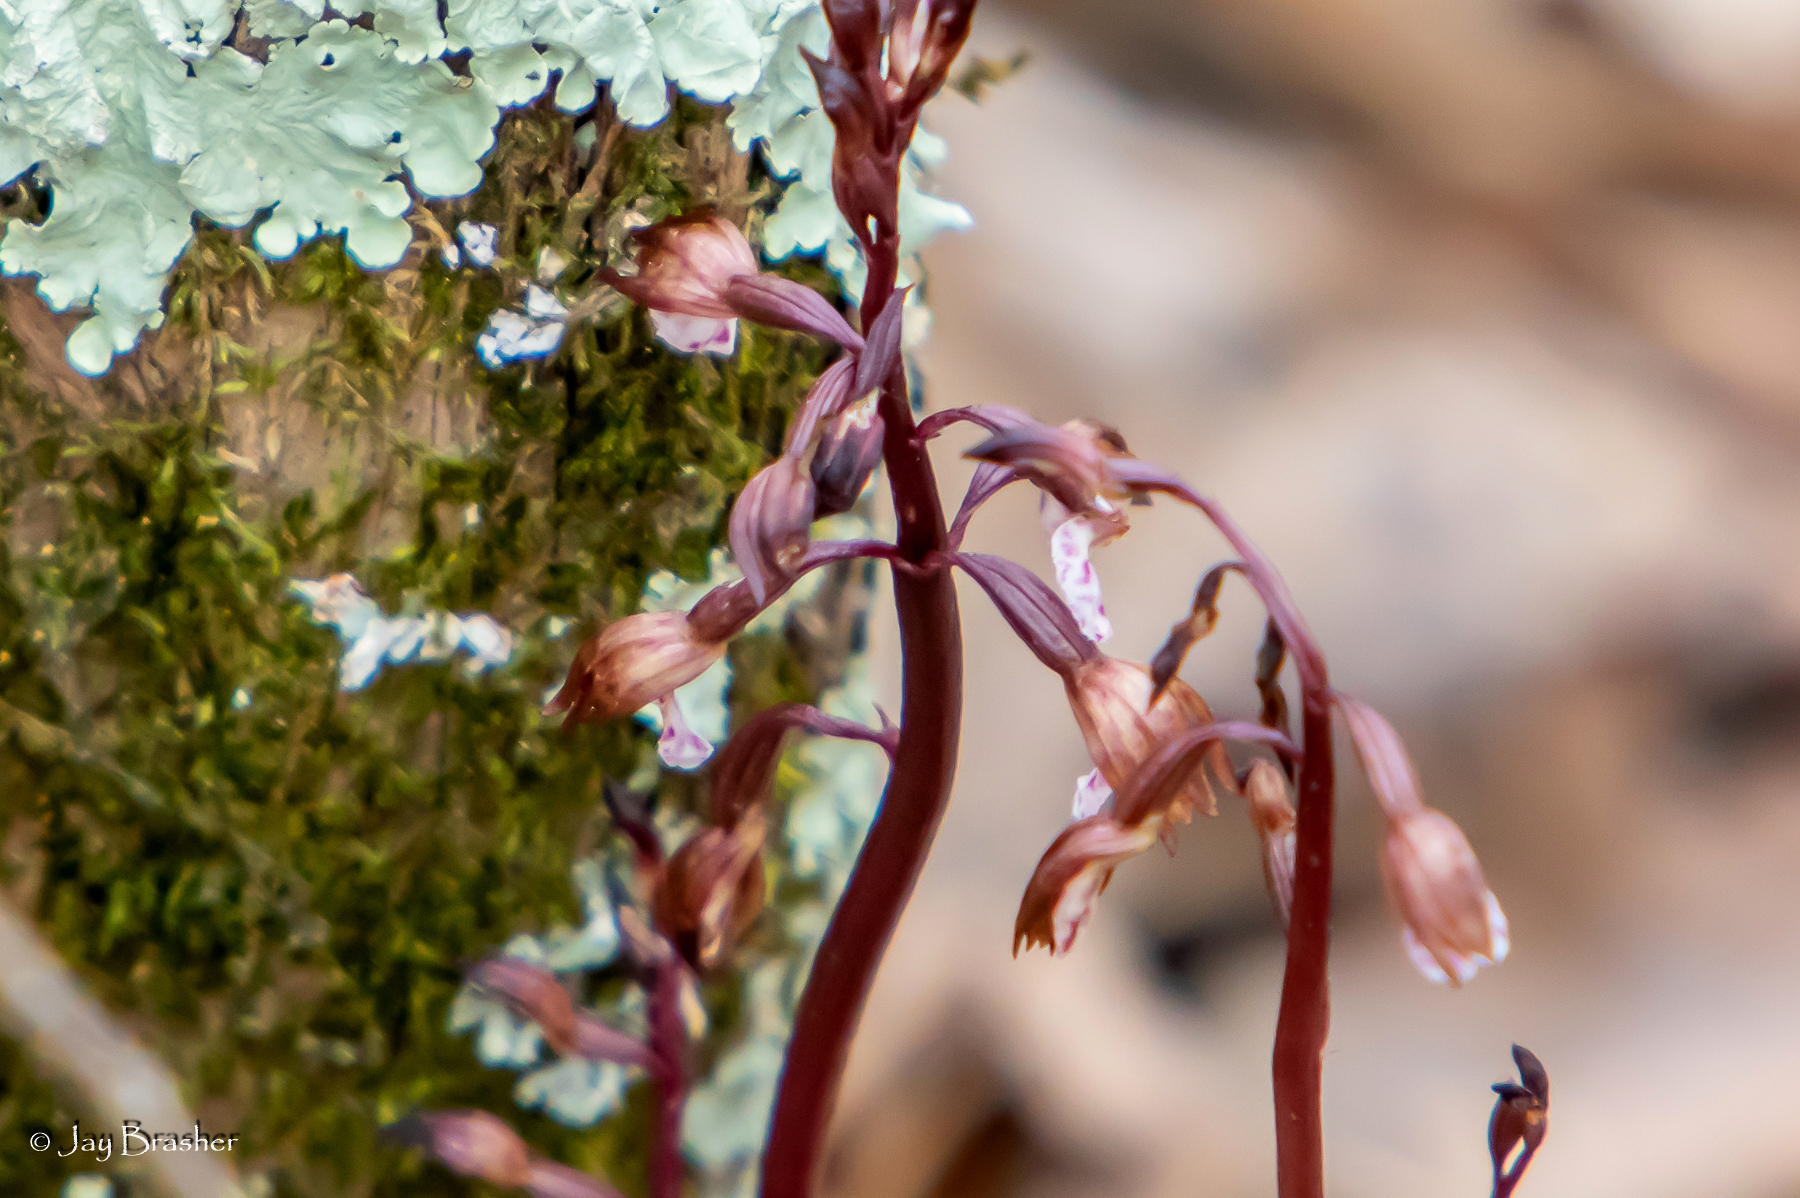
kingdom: Plantae
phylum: Tracheophyta
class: Liliopsida
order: Asparagales
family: Orchidaceae
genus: Corallorhiza
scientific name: Corallorhiza wisteriana
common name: Spring coralroot
